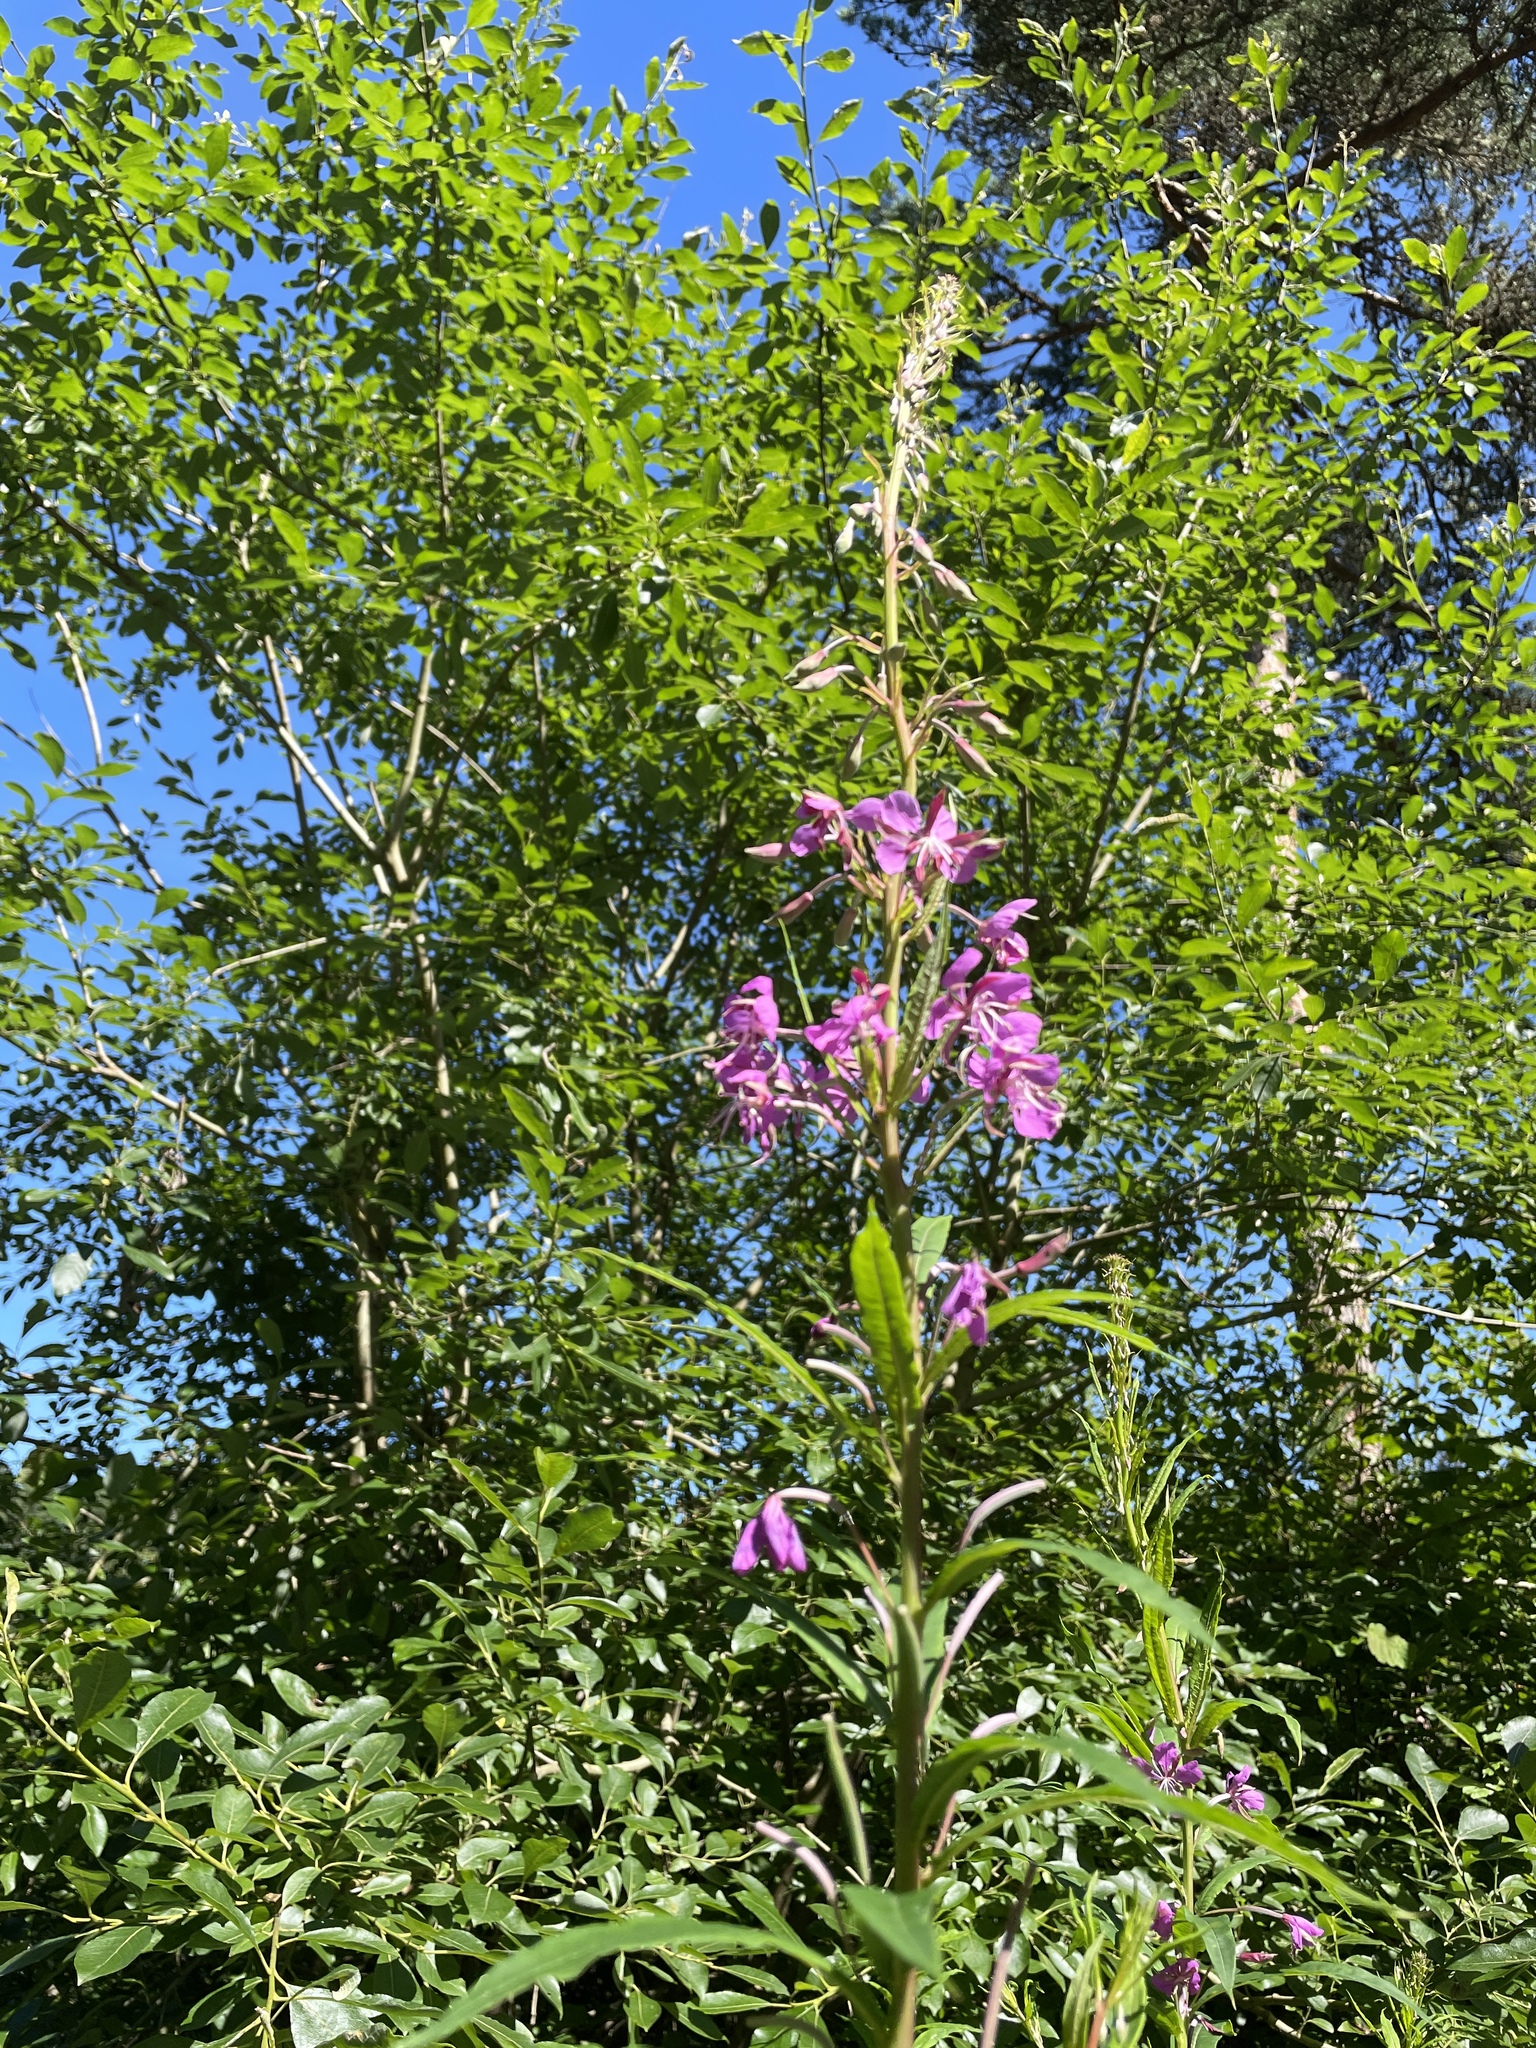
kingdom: Plantae
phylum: Tracheophyta
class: Magnoliopsida
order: Myrtales
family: Onagraceae
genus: Chamaenerion
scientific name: Chamaenerion angustifolium
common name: Fireweed
